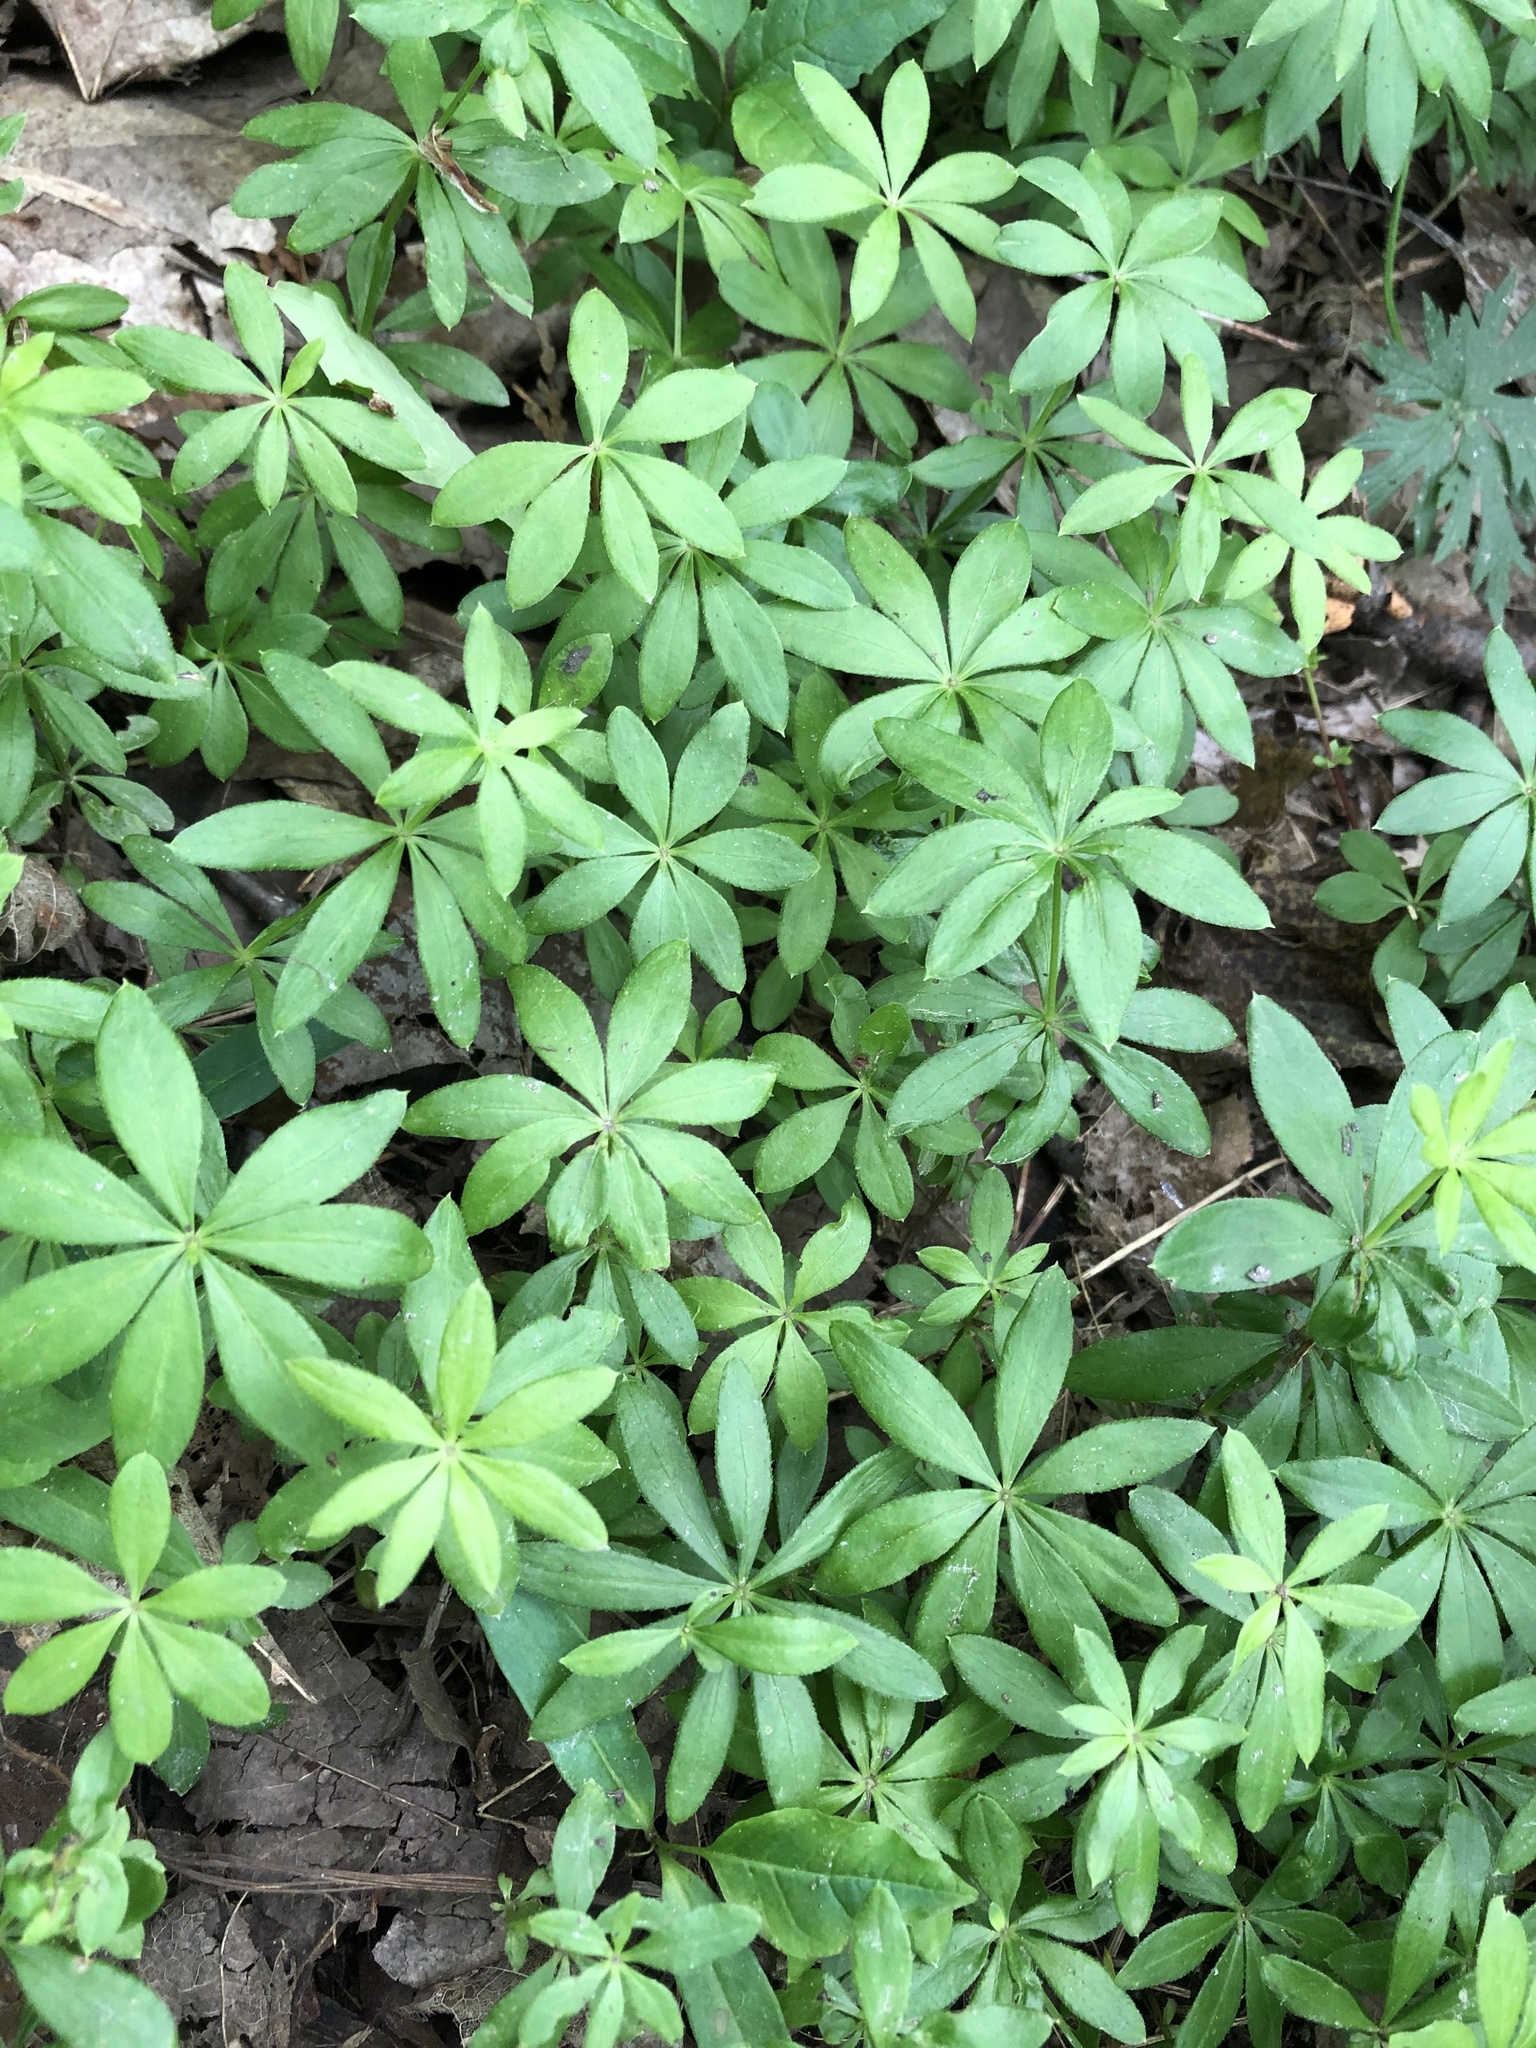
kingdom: Plantae
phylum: Tracheophyta
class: Magnoliopsida
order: Gentianales
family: Rubiaceae
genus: Galium
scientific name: Galium odoratum
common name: Sweet woodruff
